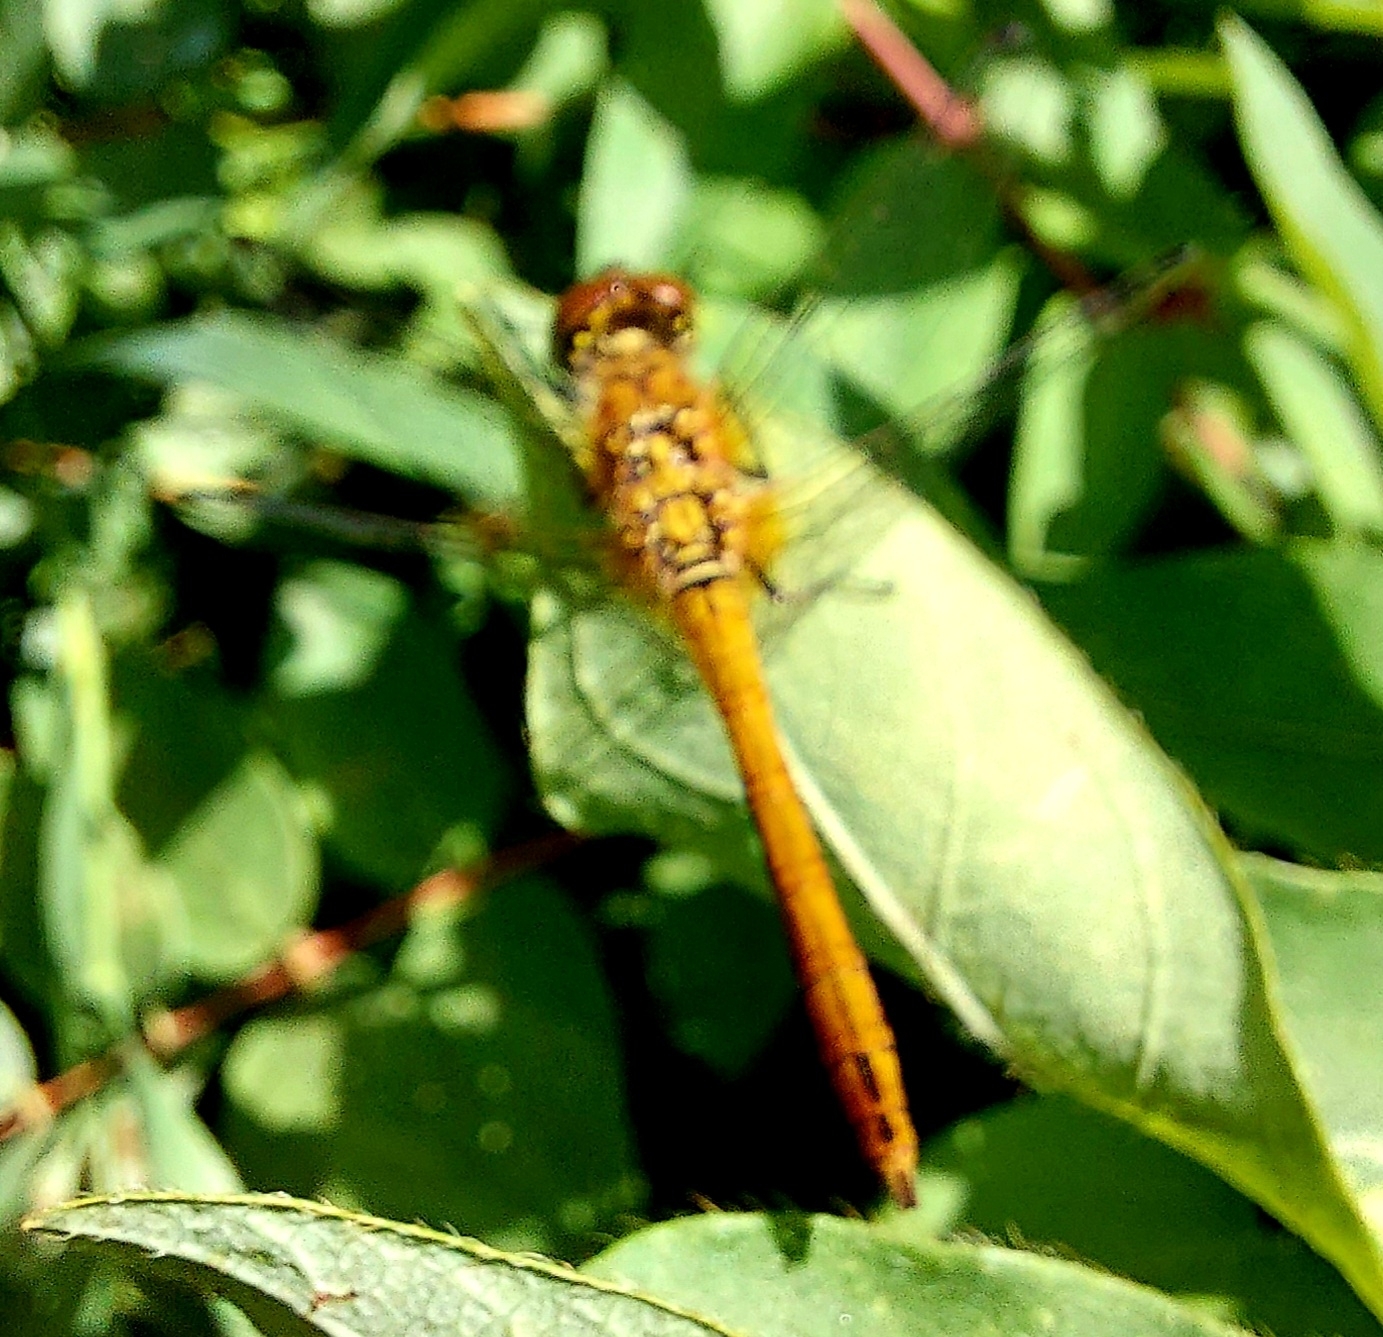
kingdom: Animalia
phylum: Arthropoda
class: Insecta
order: Odonata
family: Libellulidae
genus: Sympetrum
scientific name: Sympetrum sanguineum
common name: Ruddy darter
